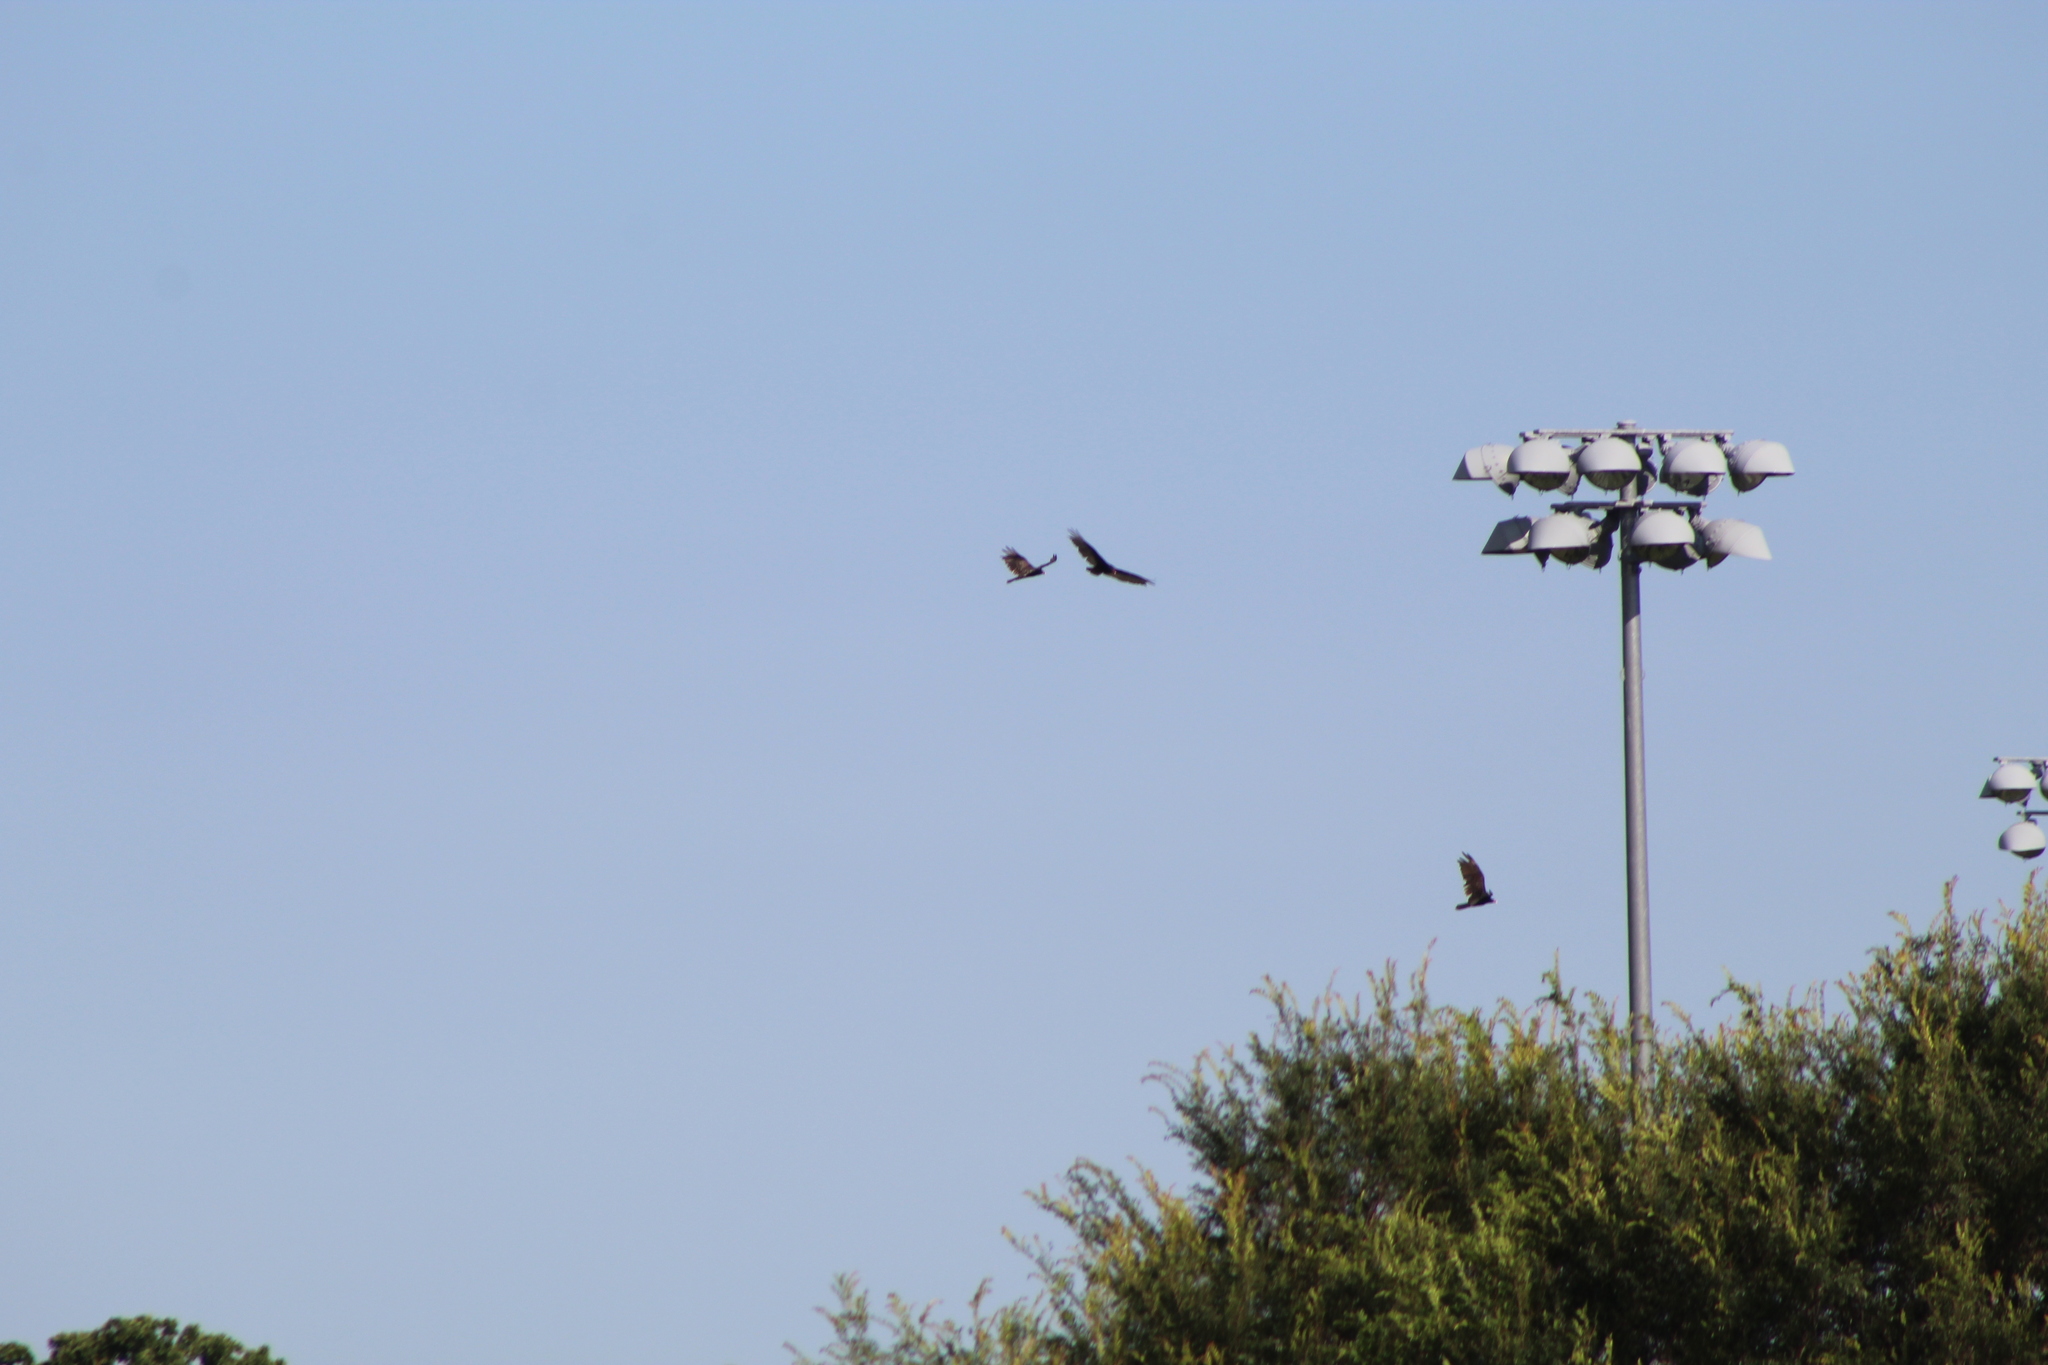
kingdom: Animalia
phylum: Chordata
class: Aves
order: Accipitriformes
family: Cathartidae
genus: Cathartes
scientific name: Cathartes aura
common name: Turkey vulture
